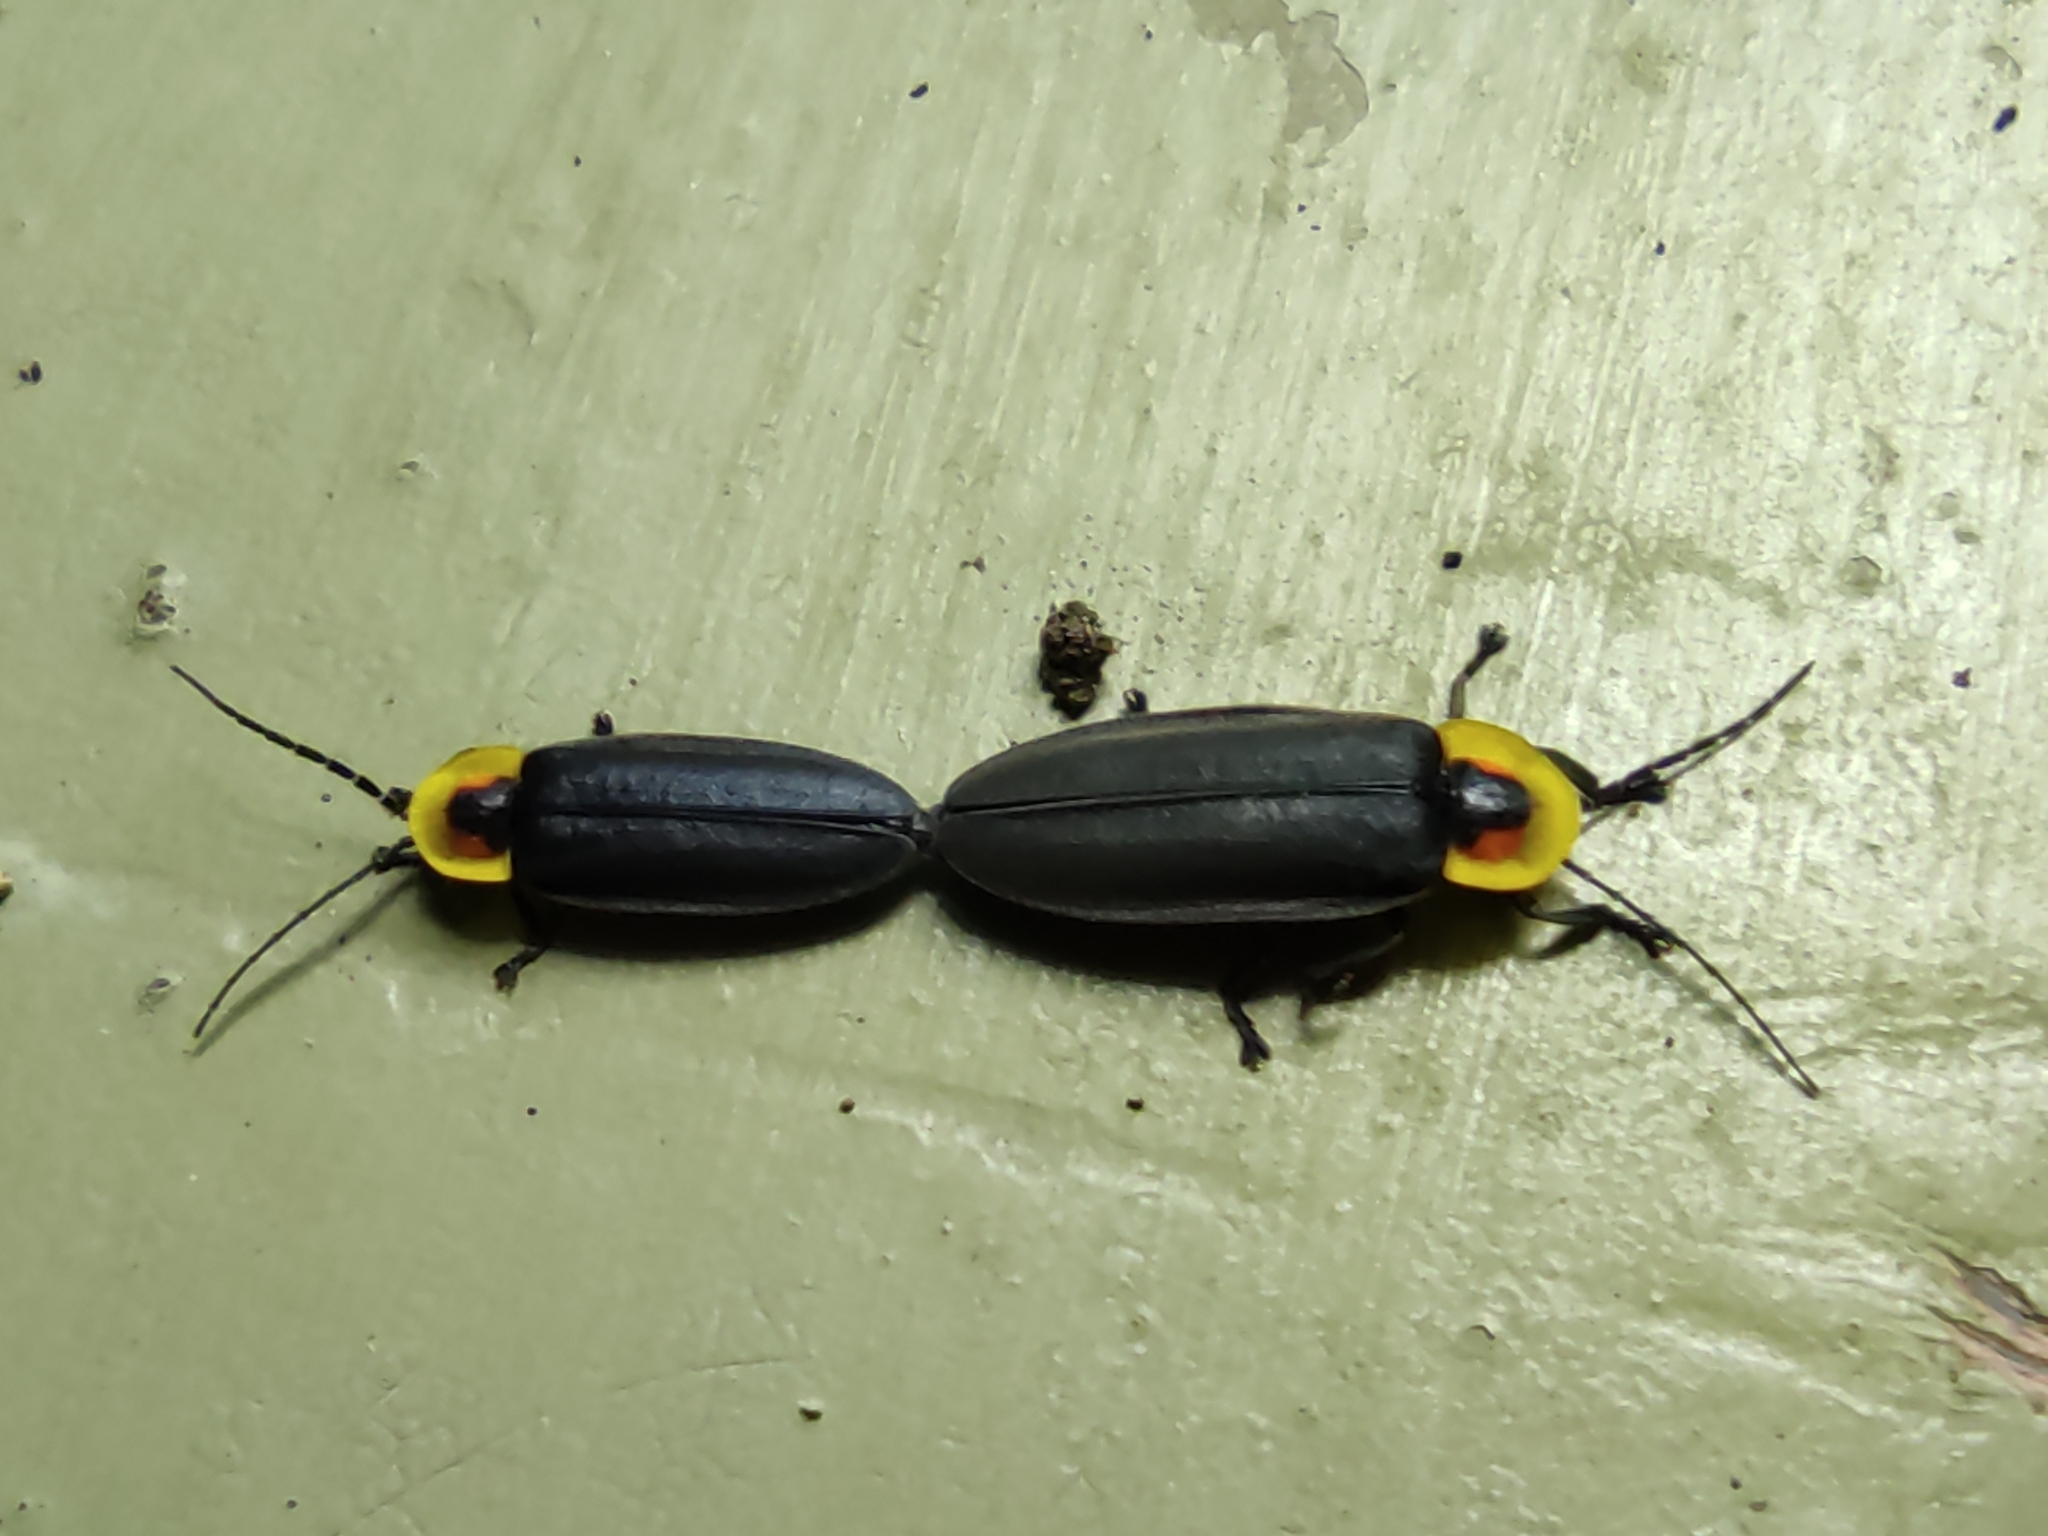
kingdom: Animalia
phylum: Arthropoda
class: Insecta
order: Coleoptera
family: Lampyridae
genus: Photinus
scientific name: Photinus aurora
